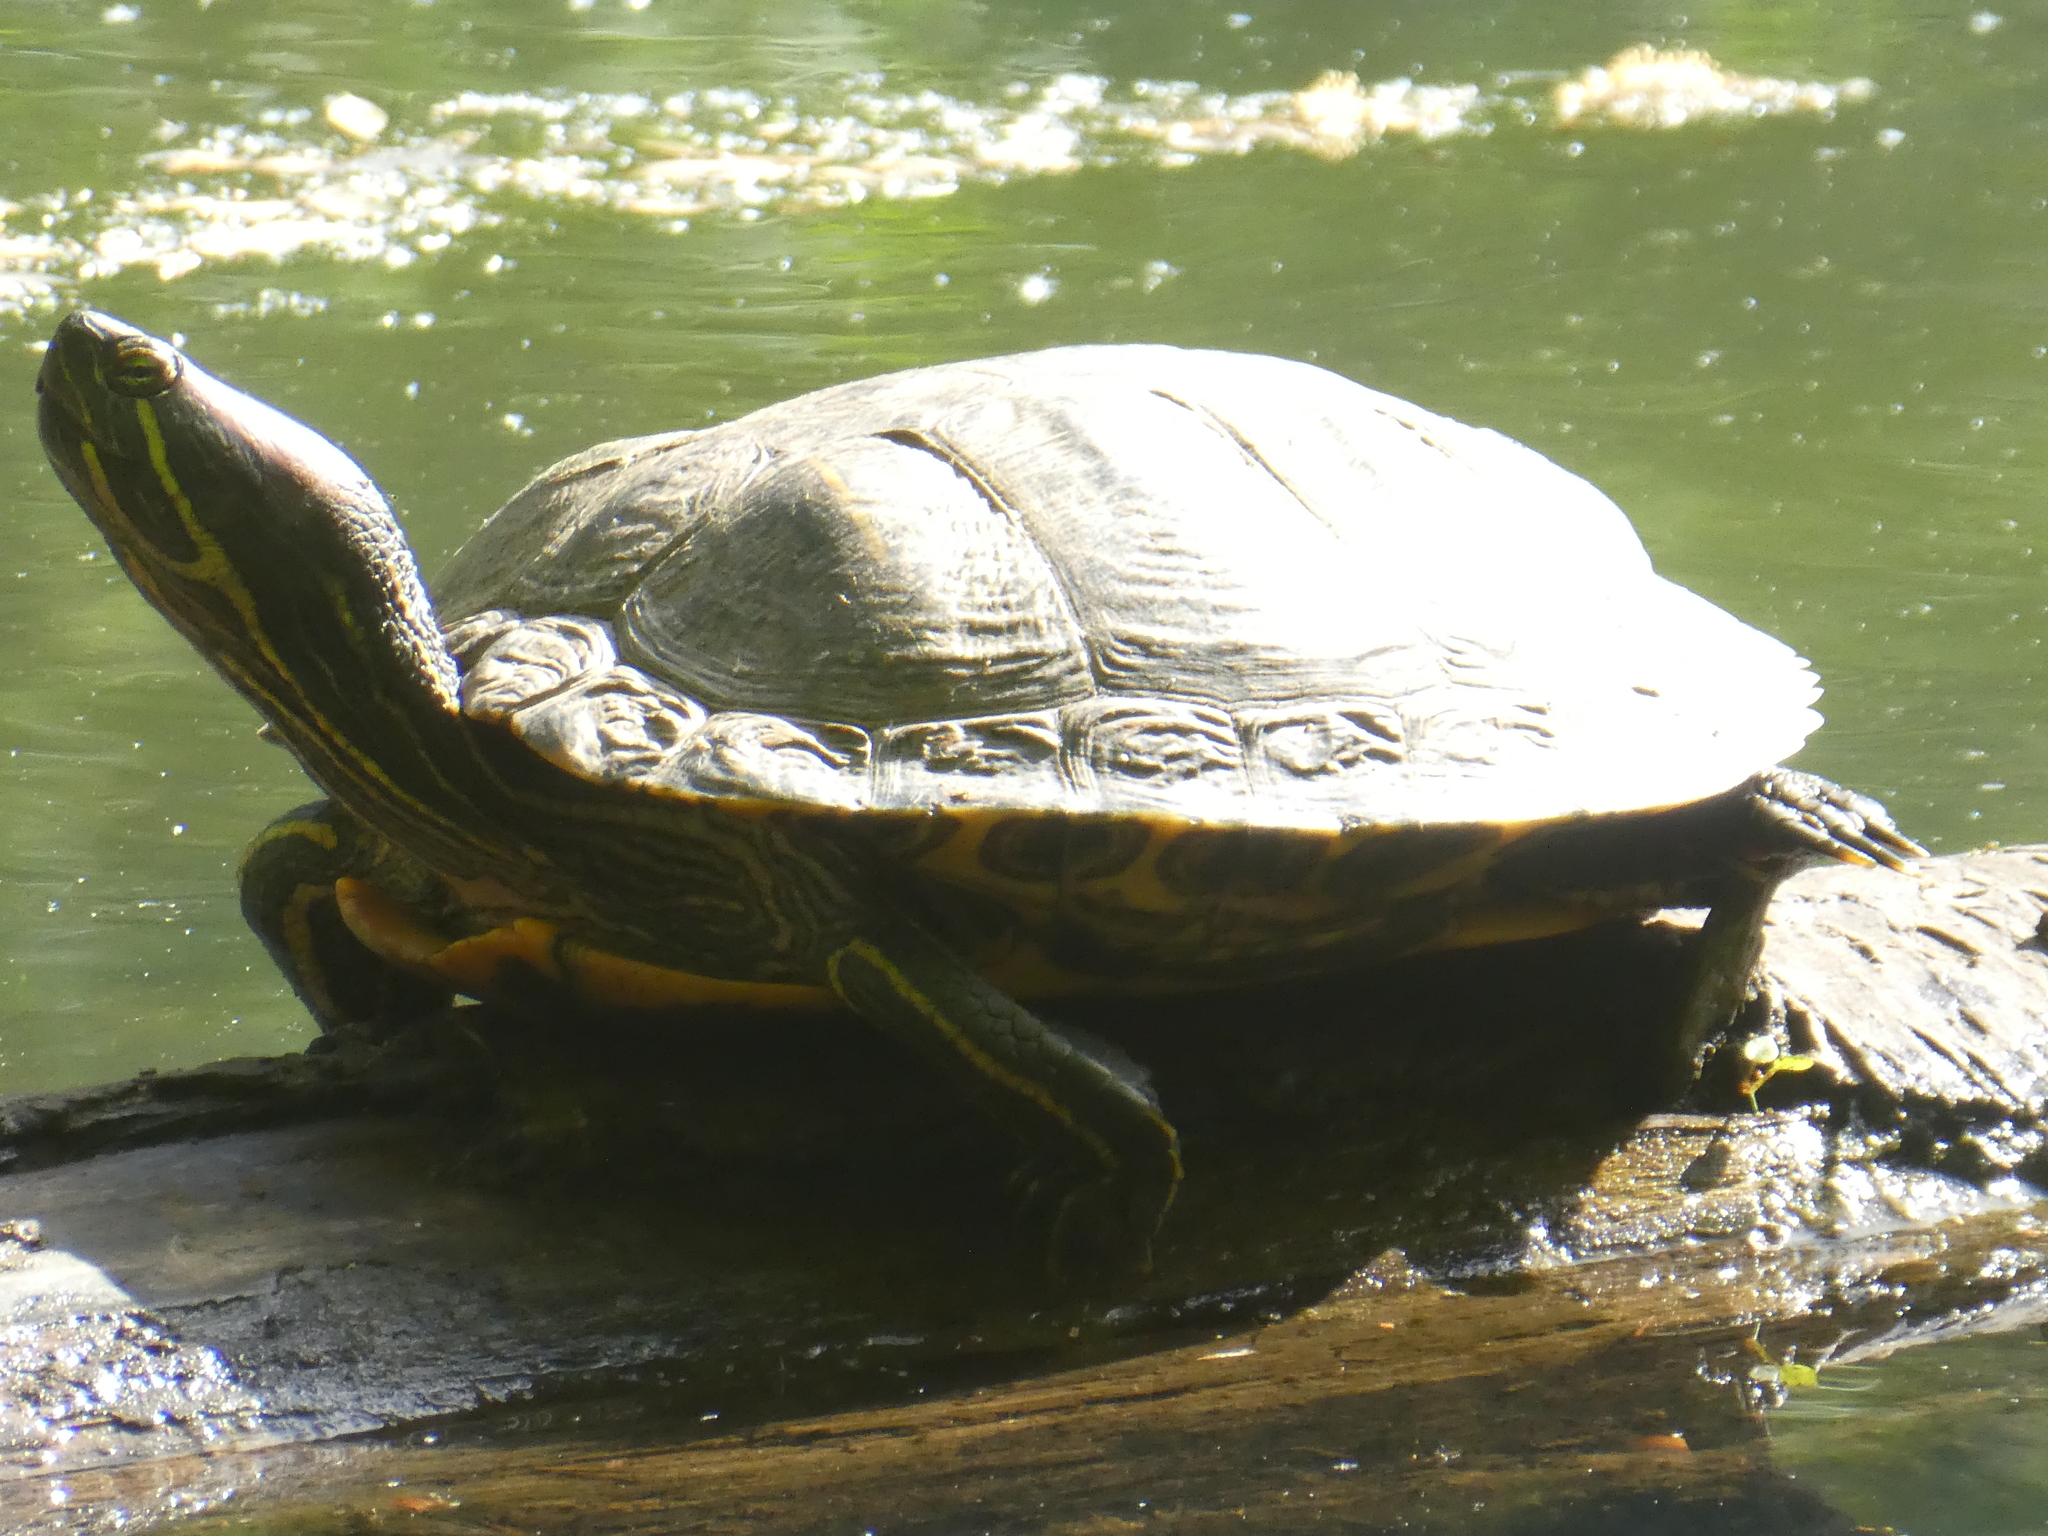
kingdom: Animalia
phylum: Chordata
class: Testudines
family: Emydidae
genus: Trachemys
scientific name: Trachemys scripta
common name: Slider
